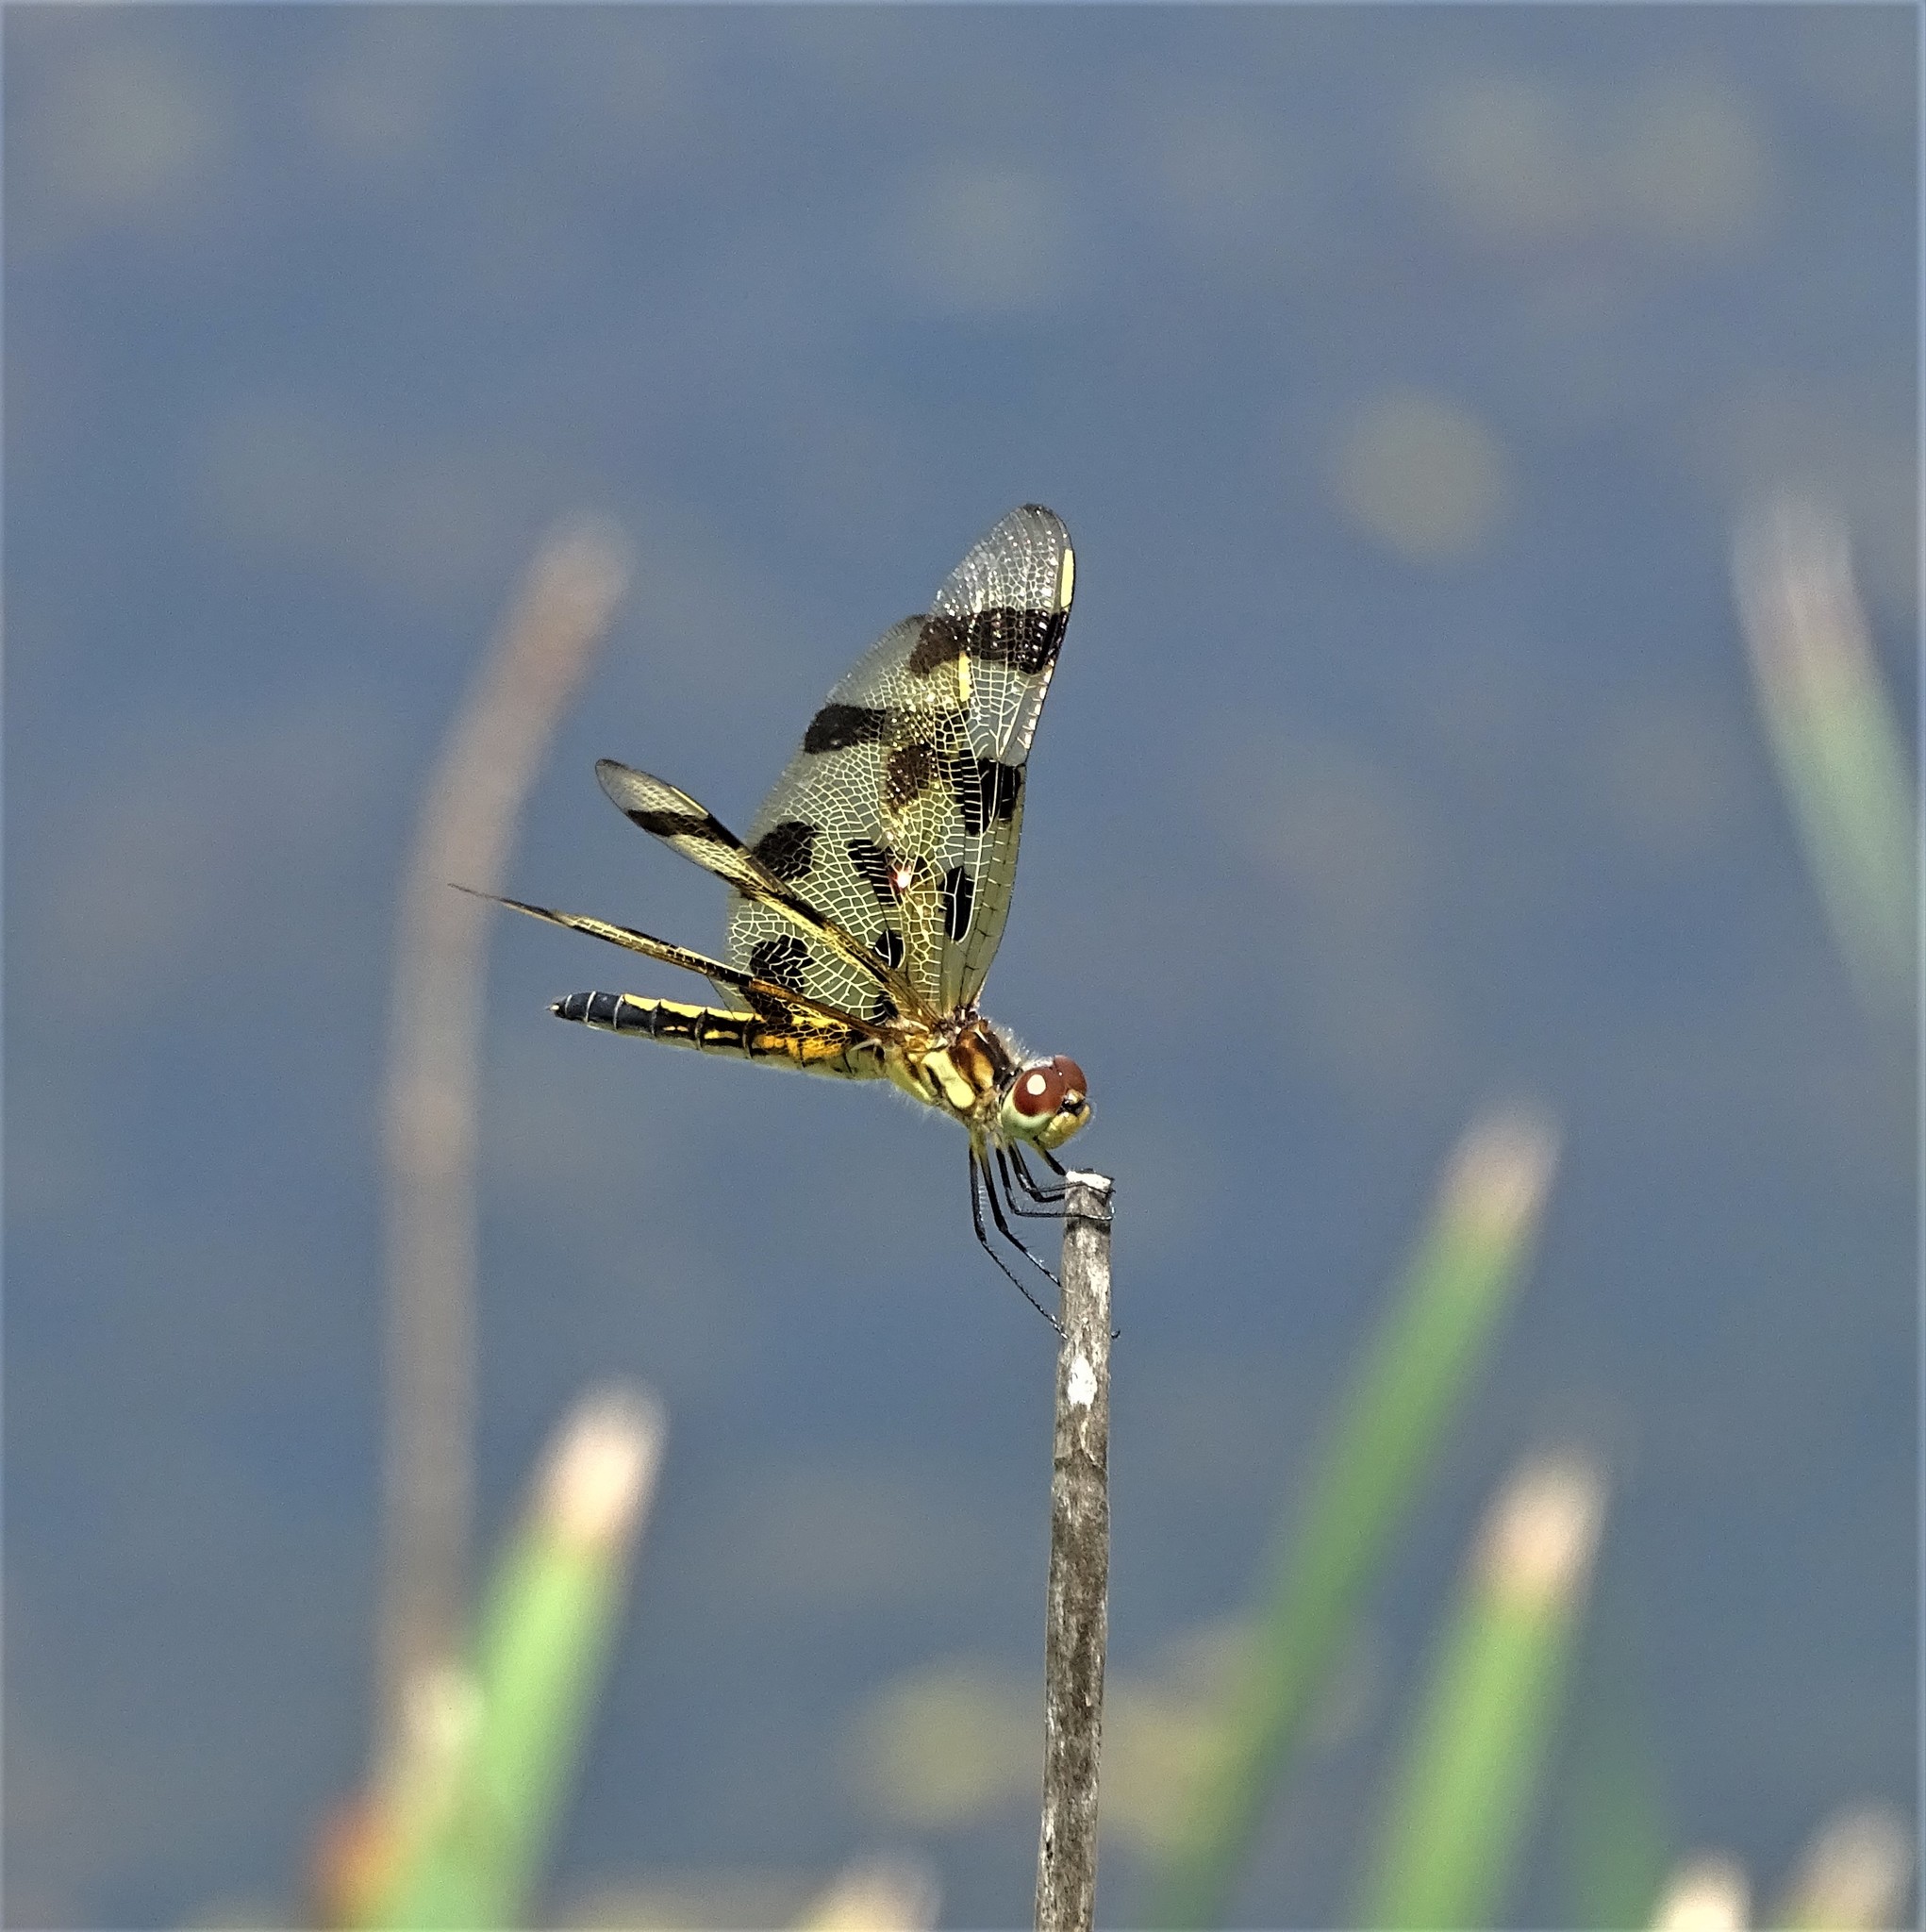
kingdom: Animalia
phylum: Arthropoda
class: Insecta
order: Odonata
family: Libellulidae
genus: Celithemis
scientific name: Celithemis eponina
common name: Halloween pennant
